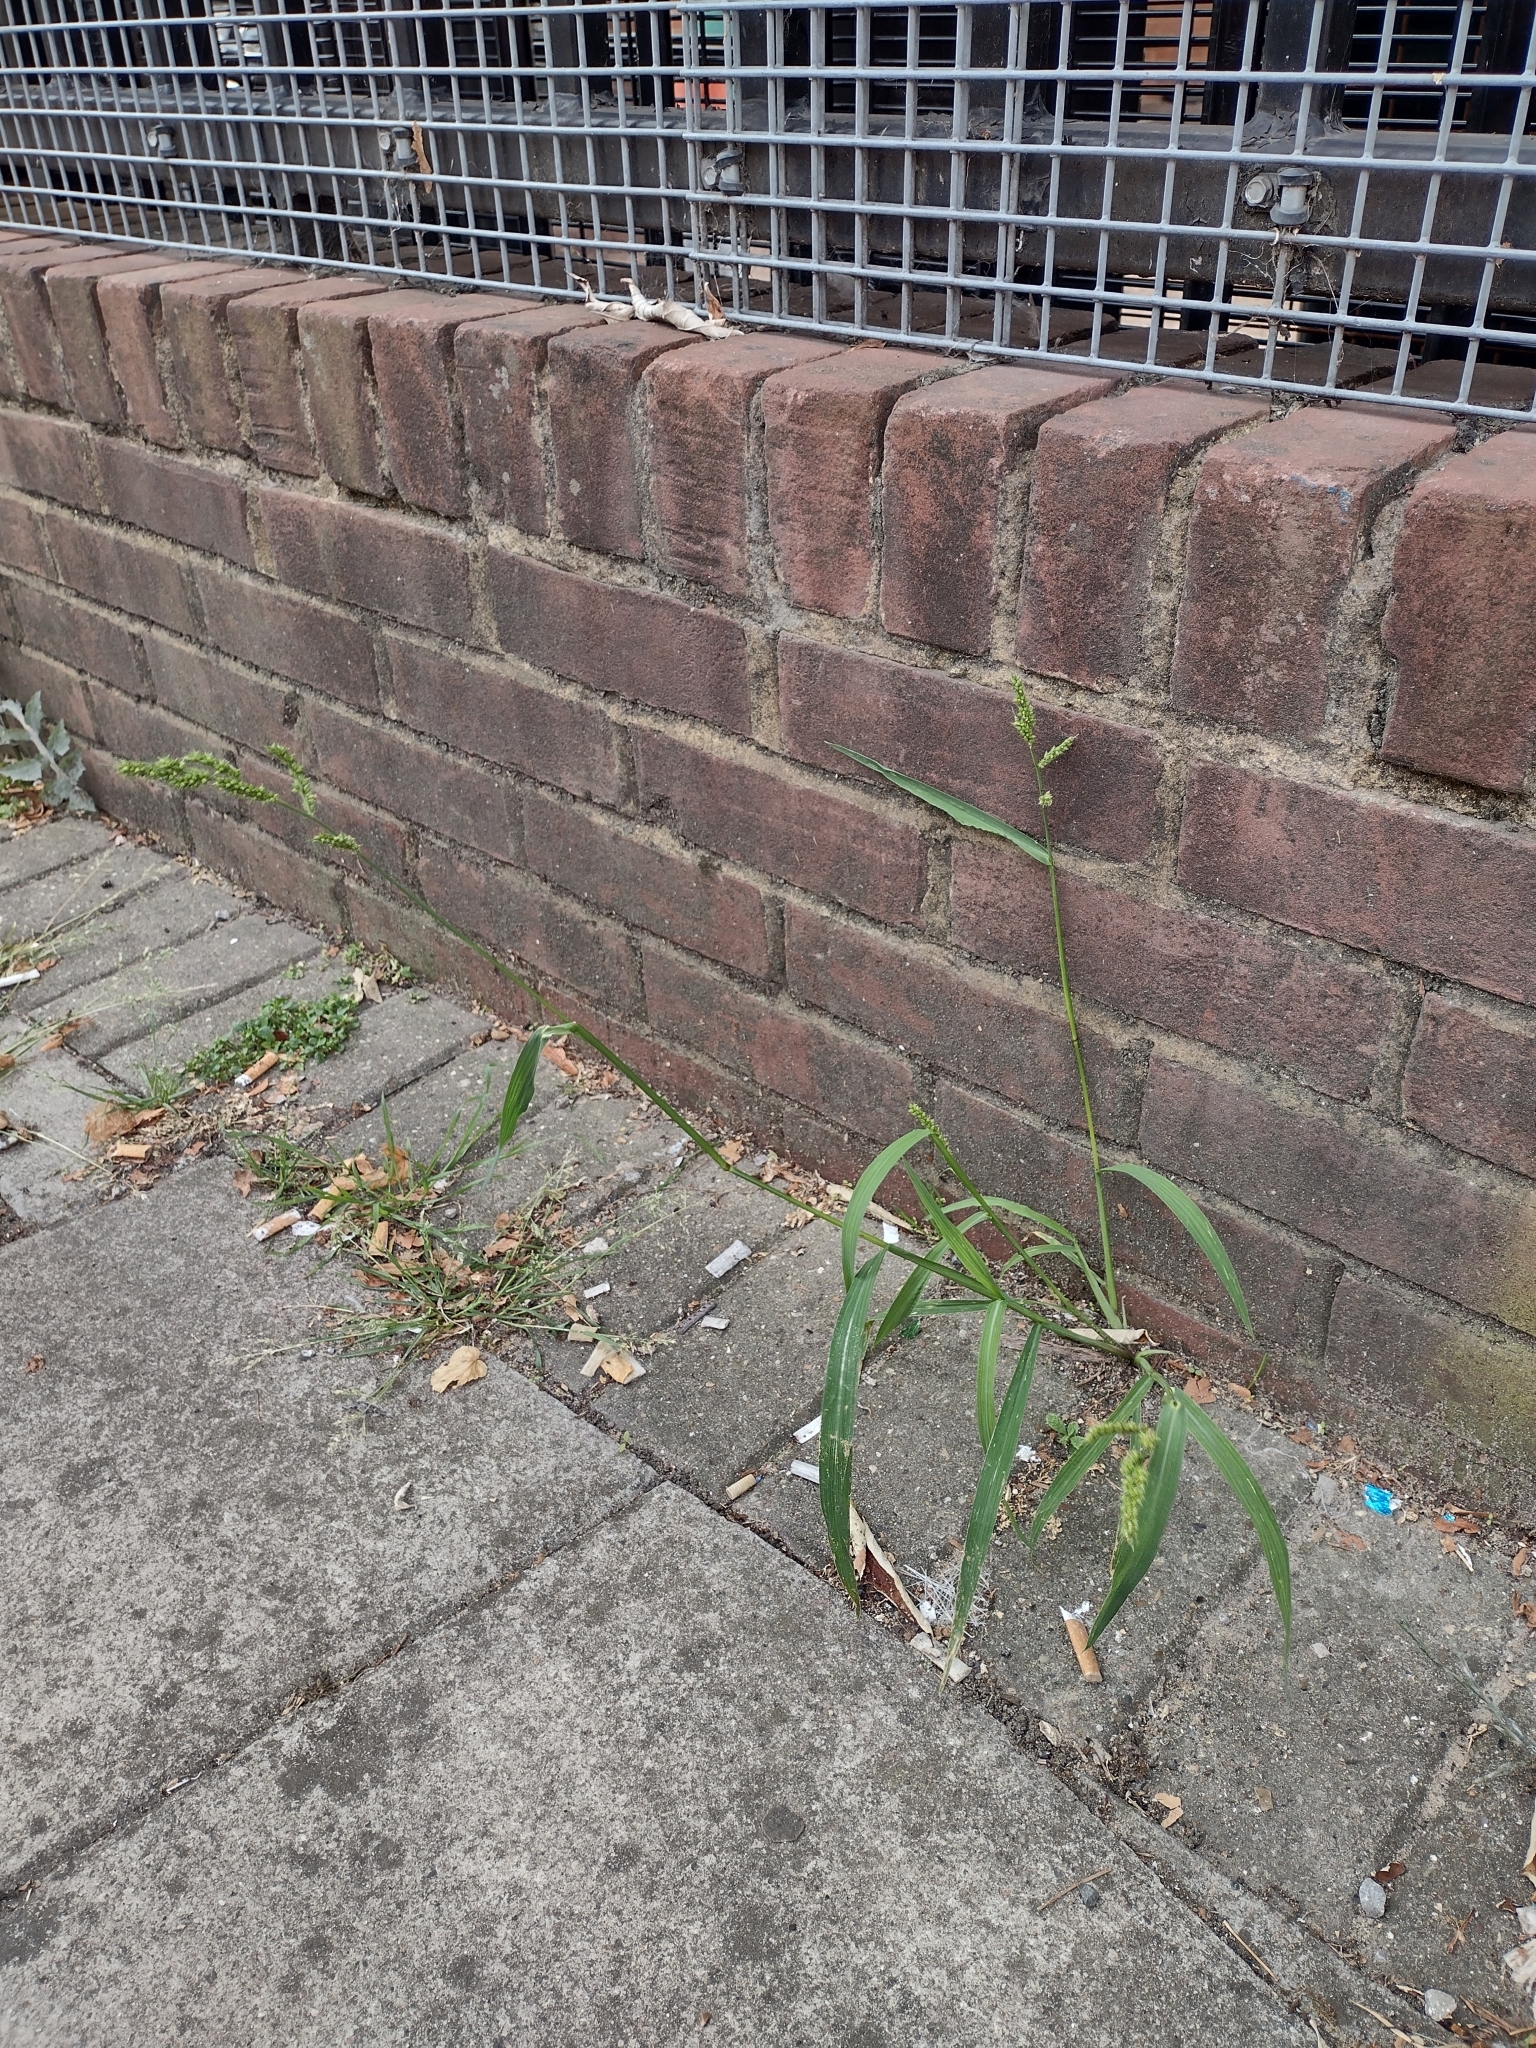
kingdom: Plantae
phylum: Tracheophyta
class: Liliopsida
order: Poales
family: Poaceae
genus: Echinochloa
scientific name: Echinochloa crus-galli
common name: Cockspur
